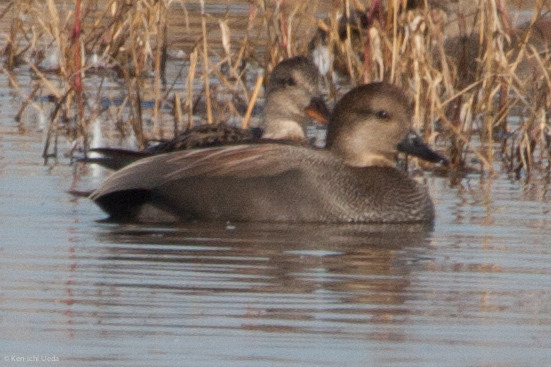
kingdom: Animalia
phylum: Chordata
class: Aves
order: Anseriformes
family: Anatidae
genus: Mareca
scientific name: Mareca strepera
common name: Gadwall
